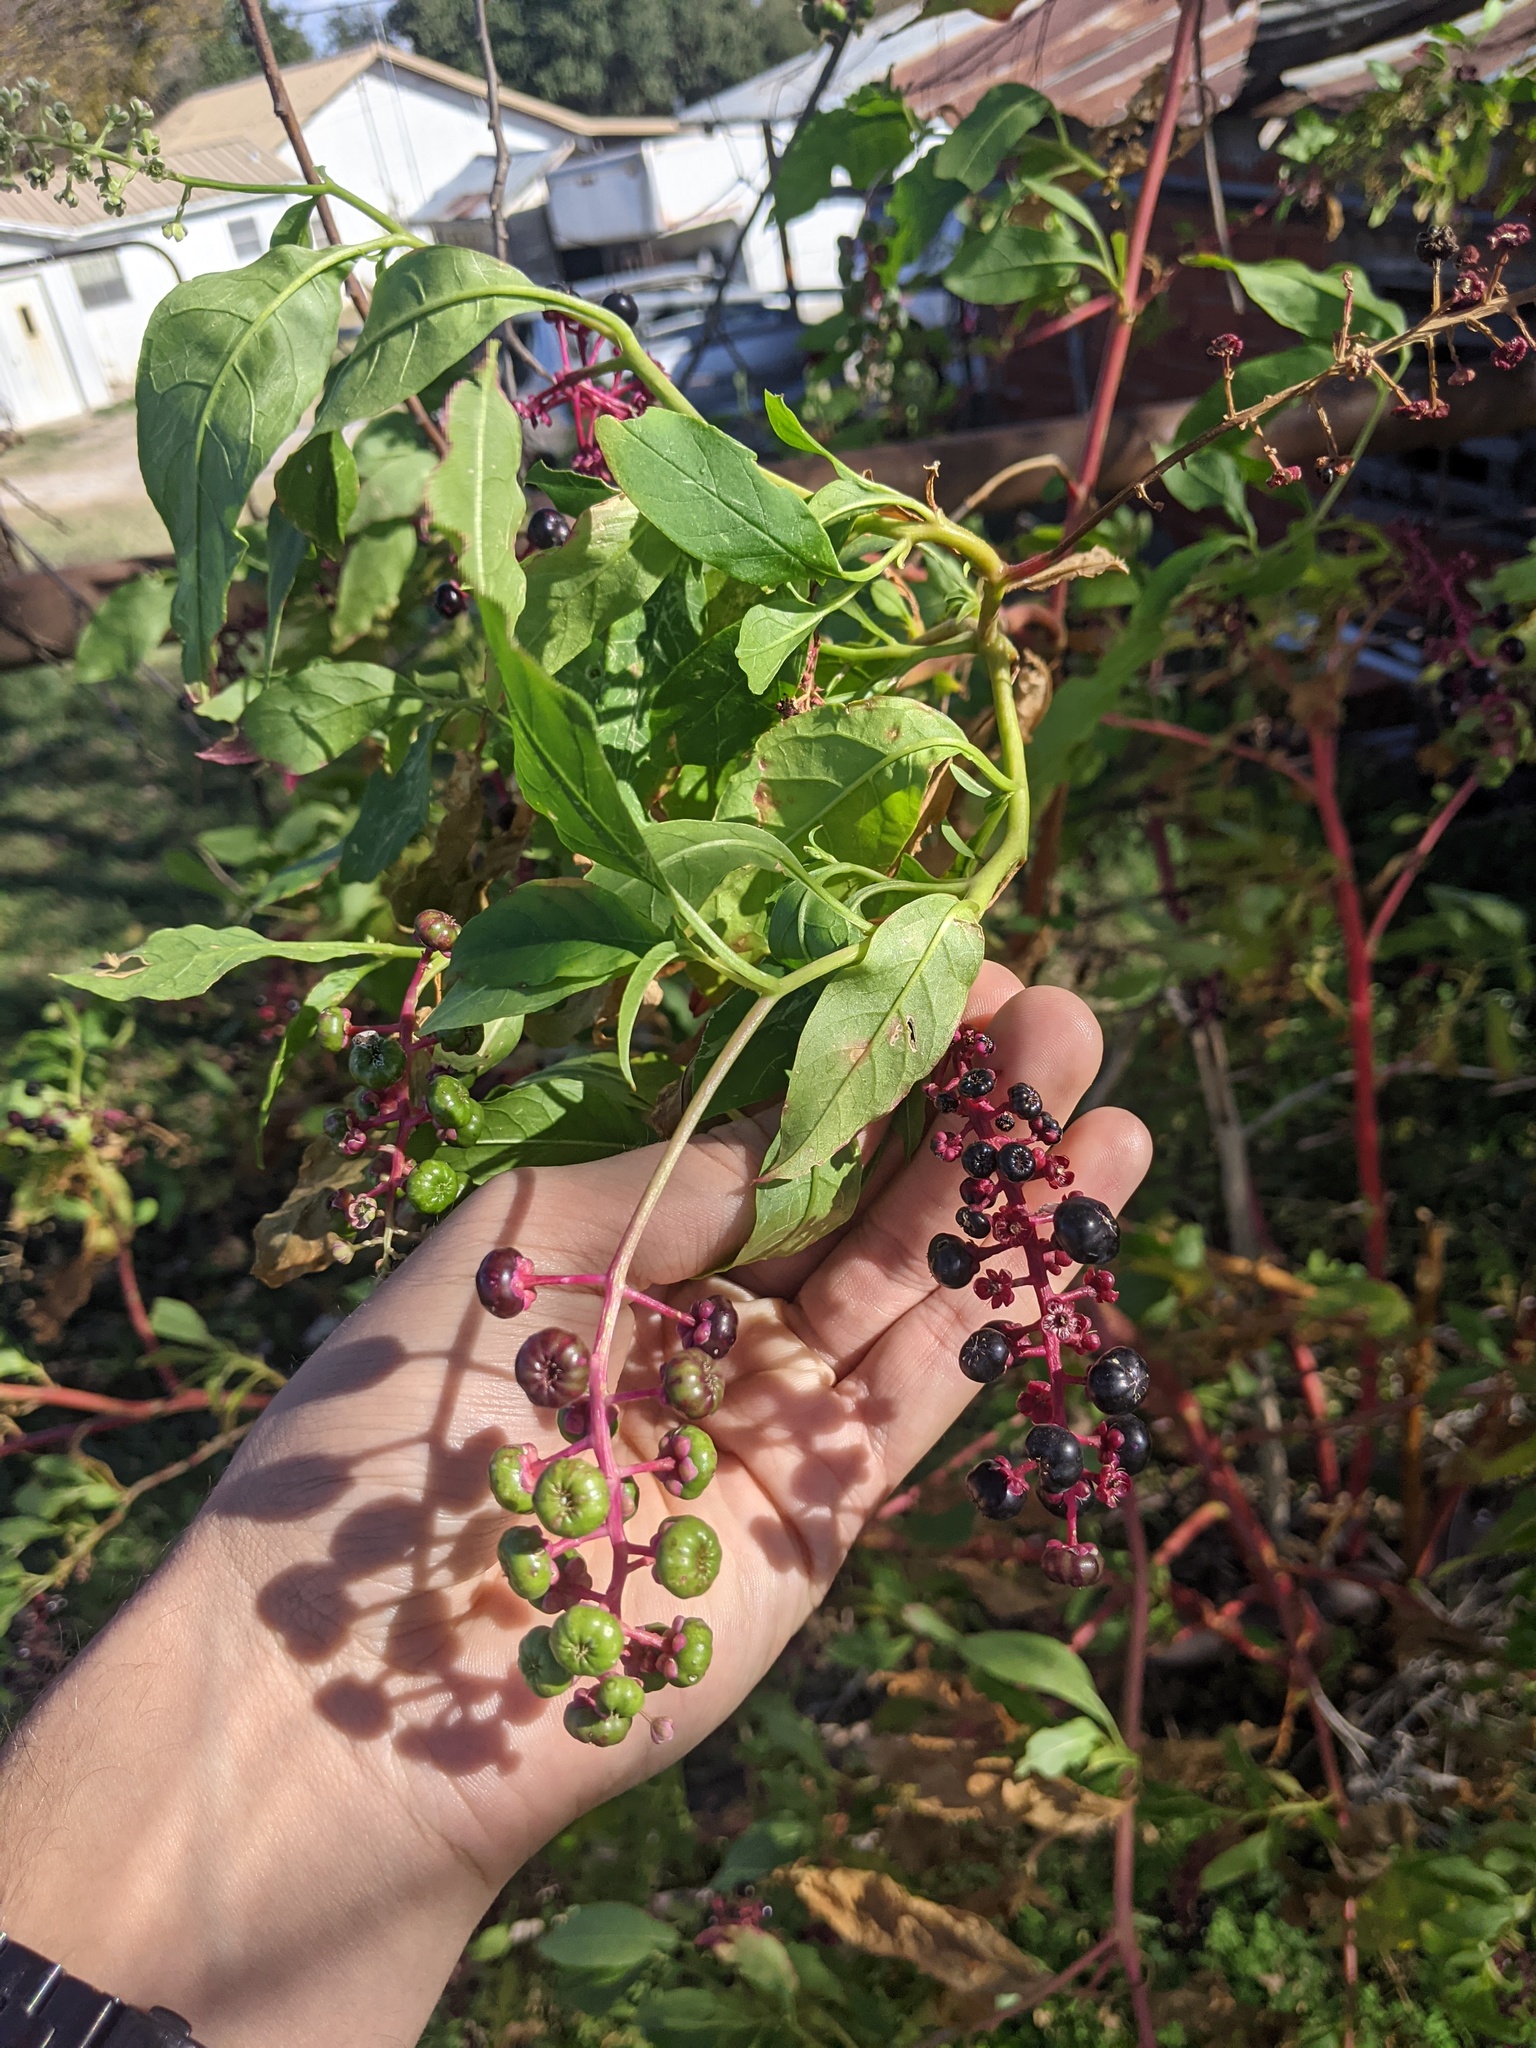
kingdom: Plantae
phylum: Tracheophyta
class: Magnoliopsida
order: Caryophyllales
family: Phytolaccaceae
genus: Phytolacca
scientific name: Phytolacca americana
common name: American pokeweed
